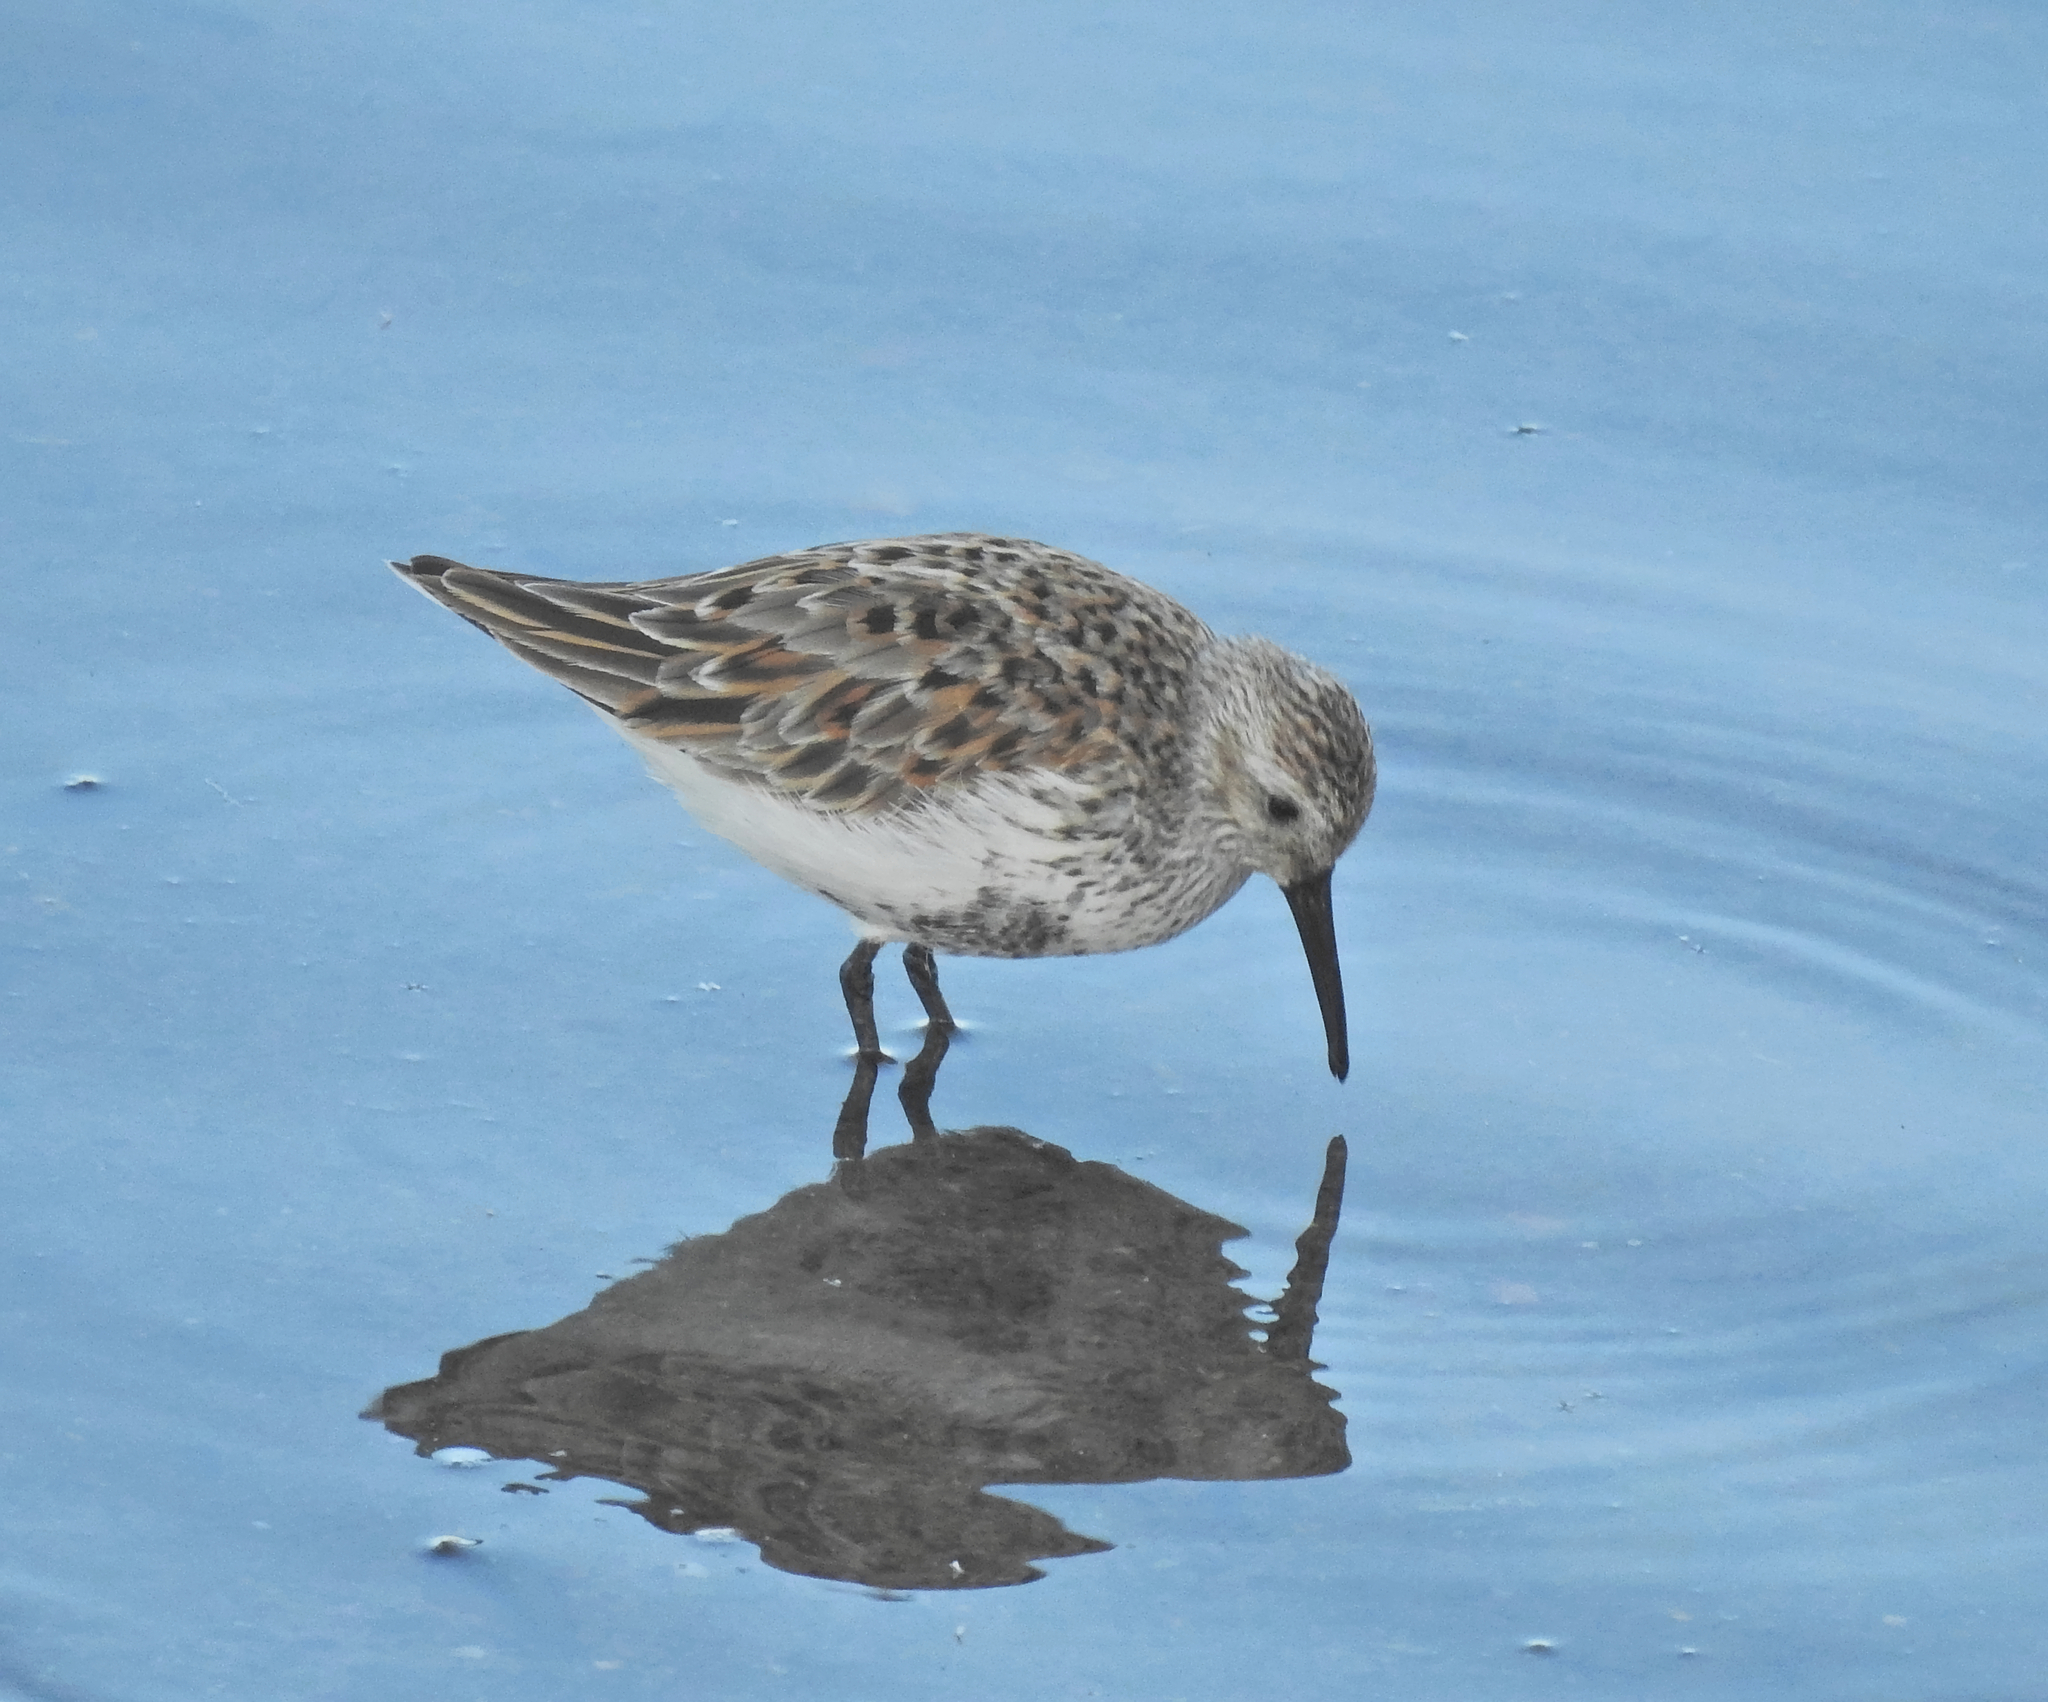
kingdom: Animalia
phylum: Chordata
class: Aves
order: Charadriiformes
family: Scolopacidae
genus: Calidris
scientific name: Calidris alpina
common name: Dunlin
